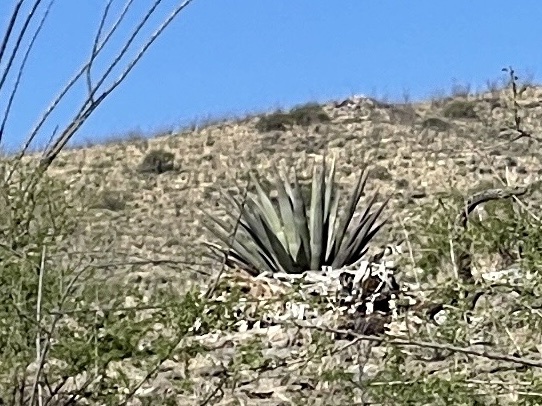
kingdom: Plantae
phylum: Tracheophyta
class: Liliopsida
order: Asparagales
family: Asparagaceae
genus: Agave
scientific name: Agave palmeri
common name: Palmer agave
